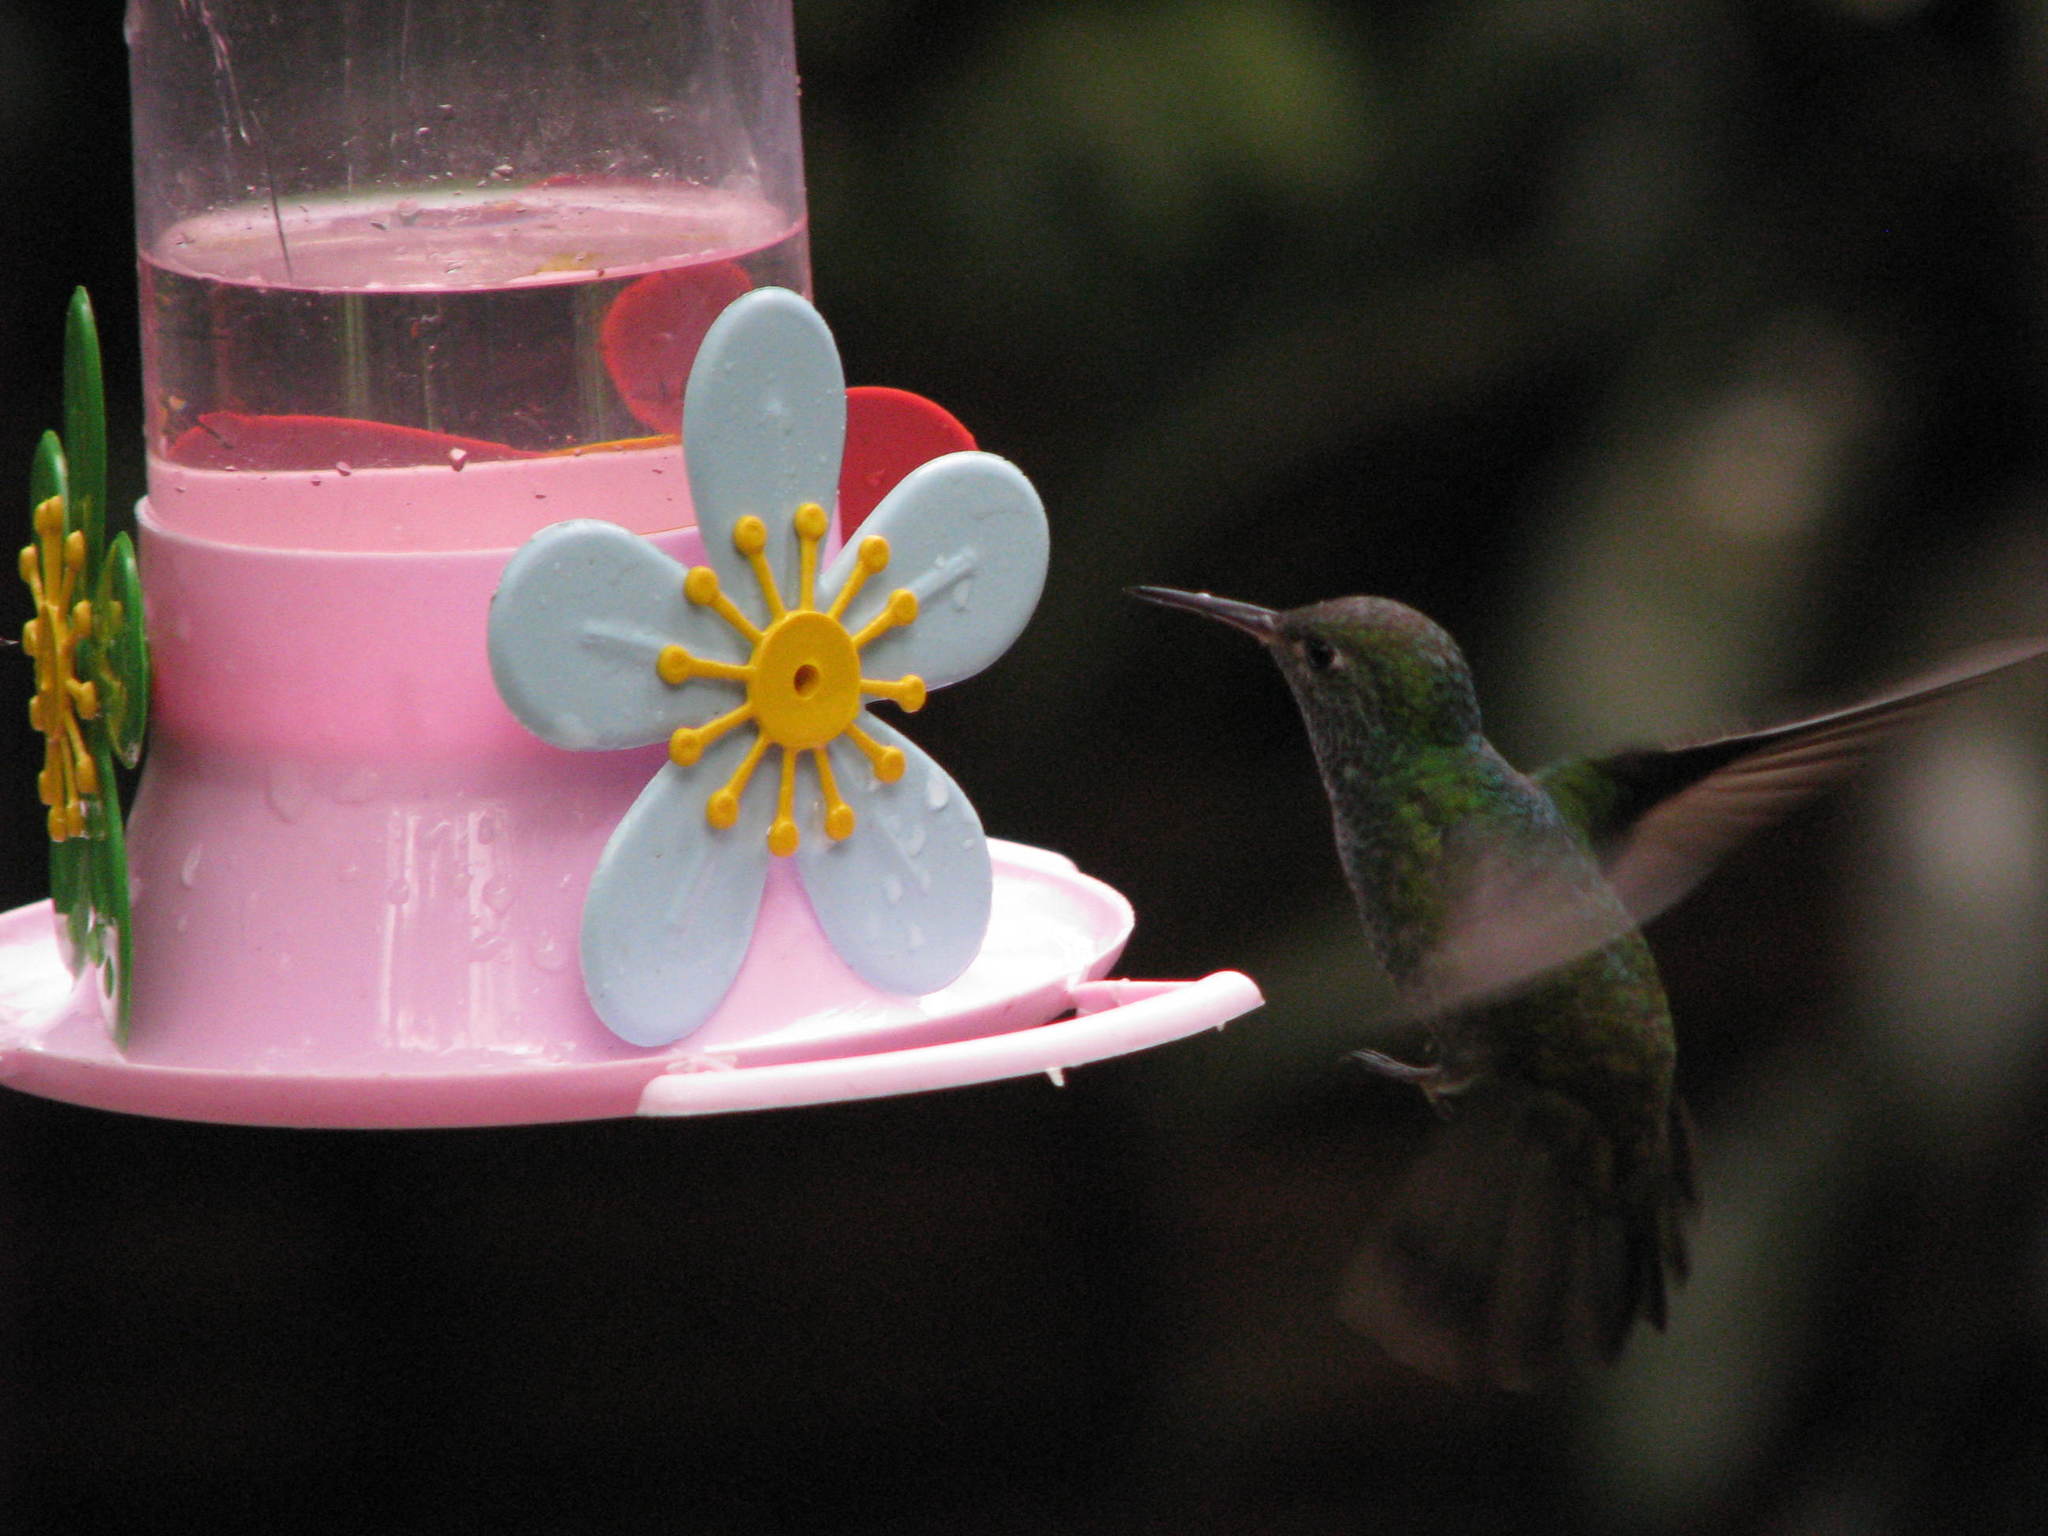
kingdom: Animalia
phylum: Chordata
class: Aves
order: Apodiformes
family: Trochilidae
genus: Chrysuronia
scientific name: Chrysuronia versicolor
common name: Versicolored emerald
